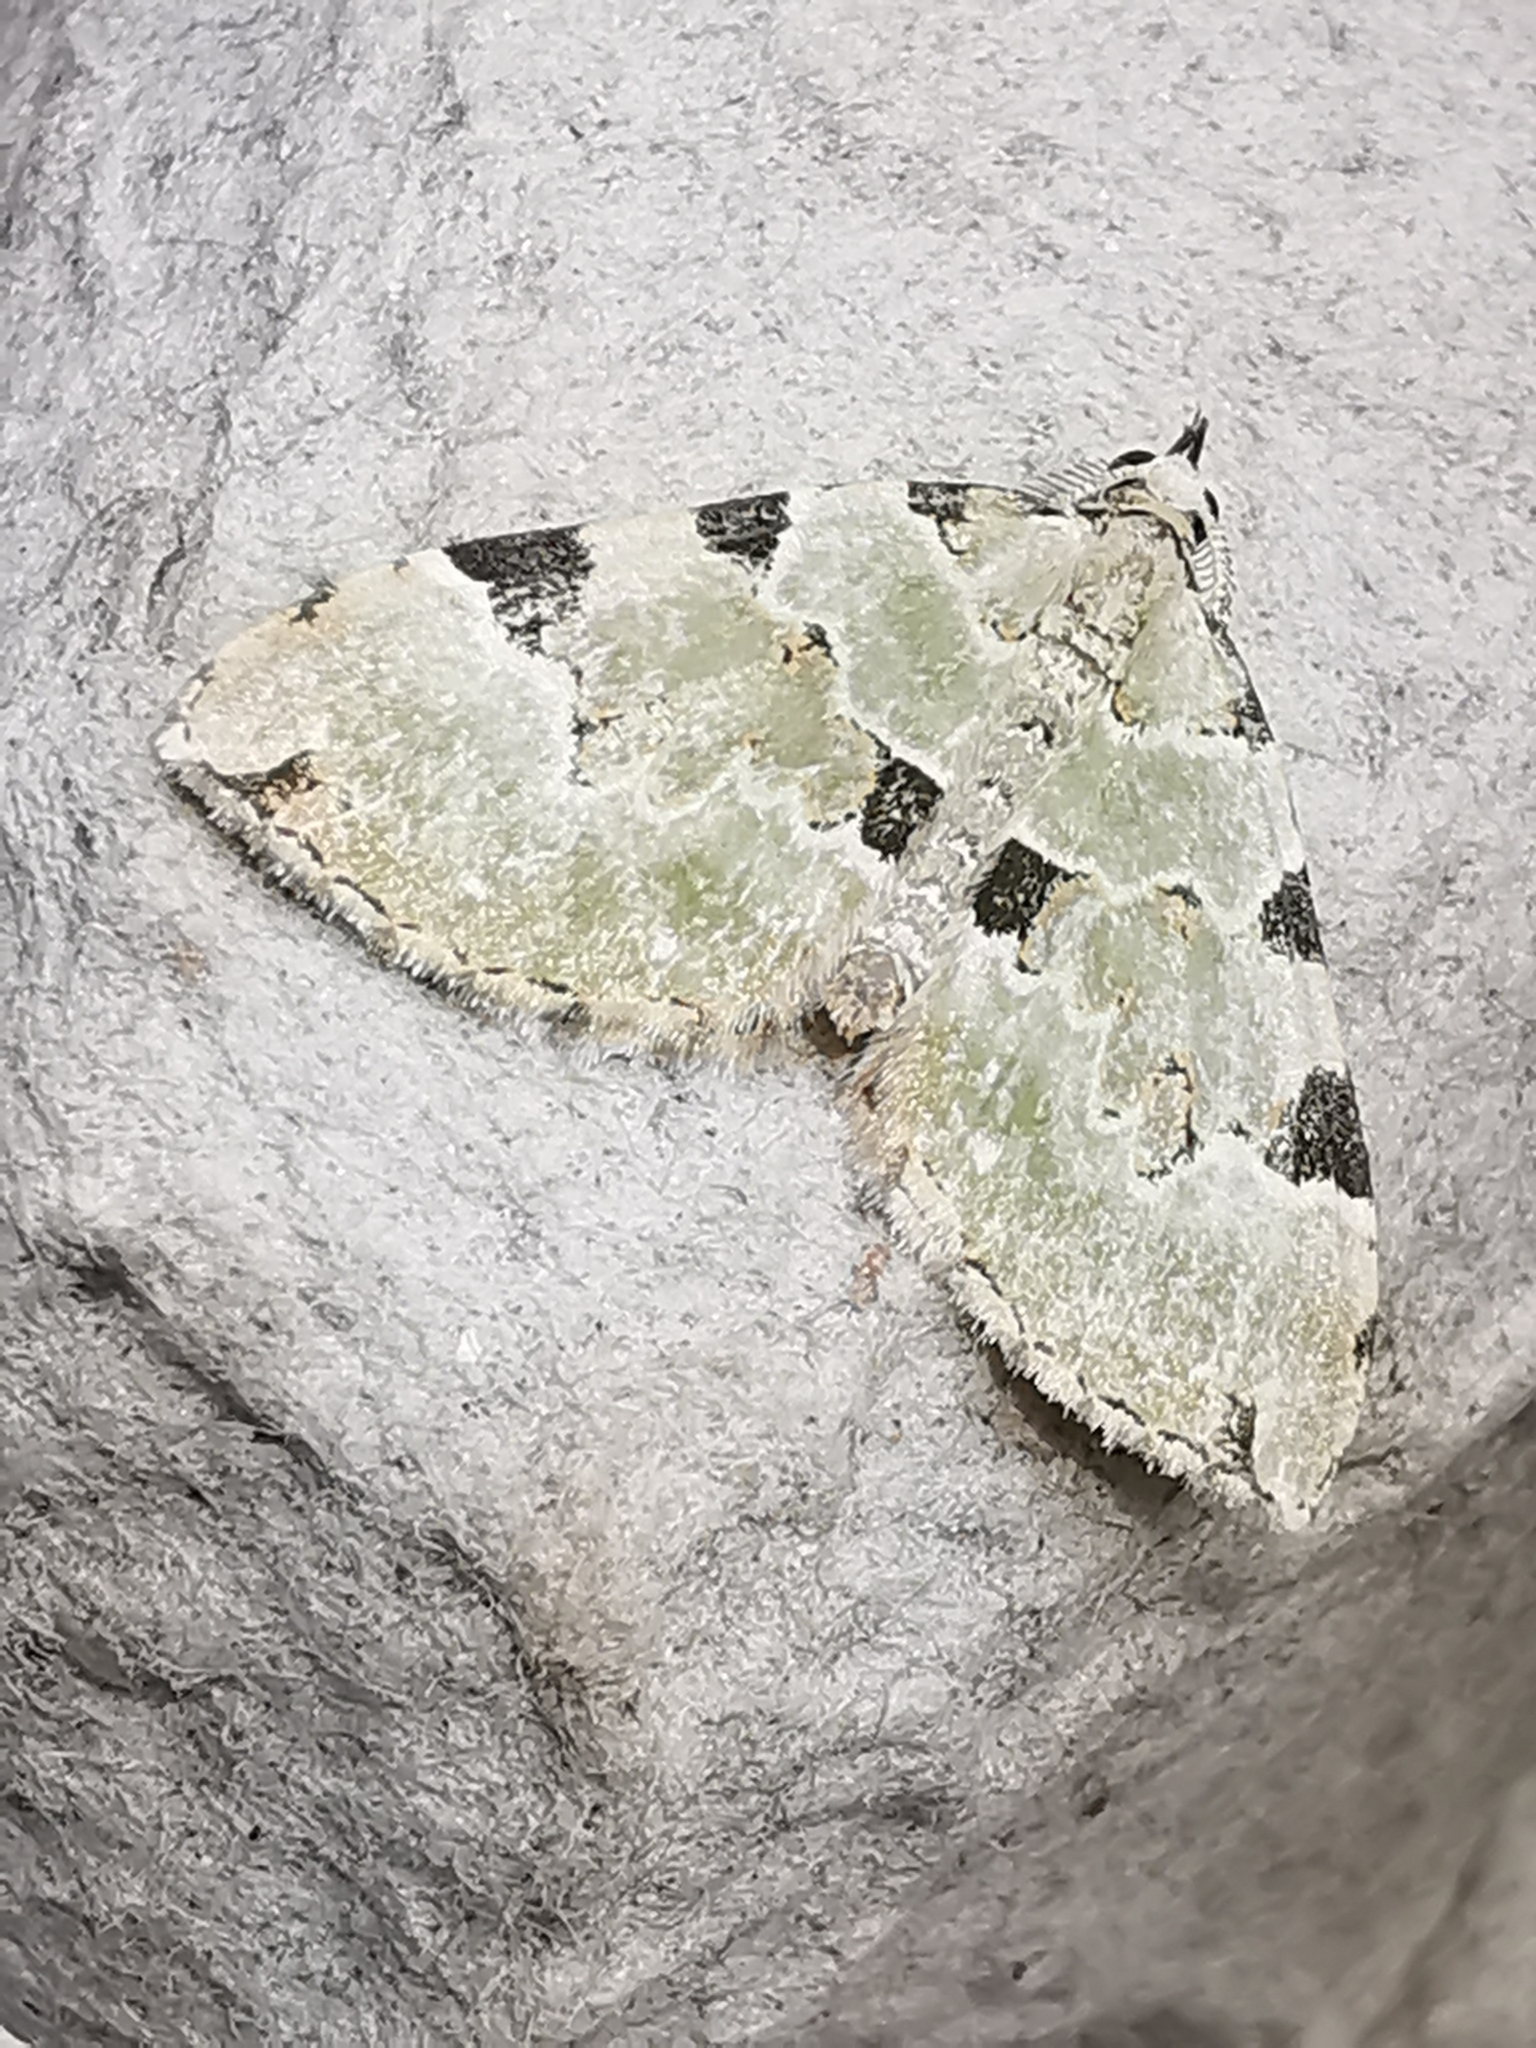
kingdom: Animalia
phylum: Arthropoda
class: Insecta
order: Lepidoptera
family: Geometridae
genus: Colostygia
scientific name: Colostygia pectinataria
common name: Green carpet
